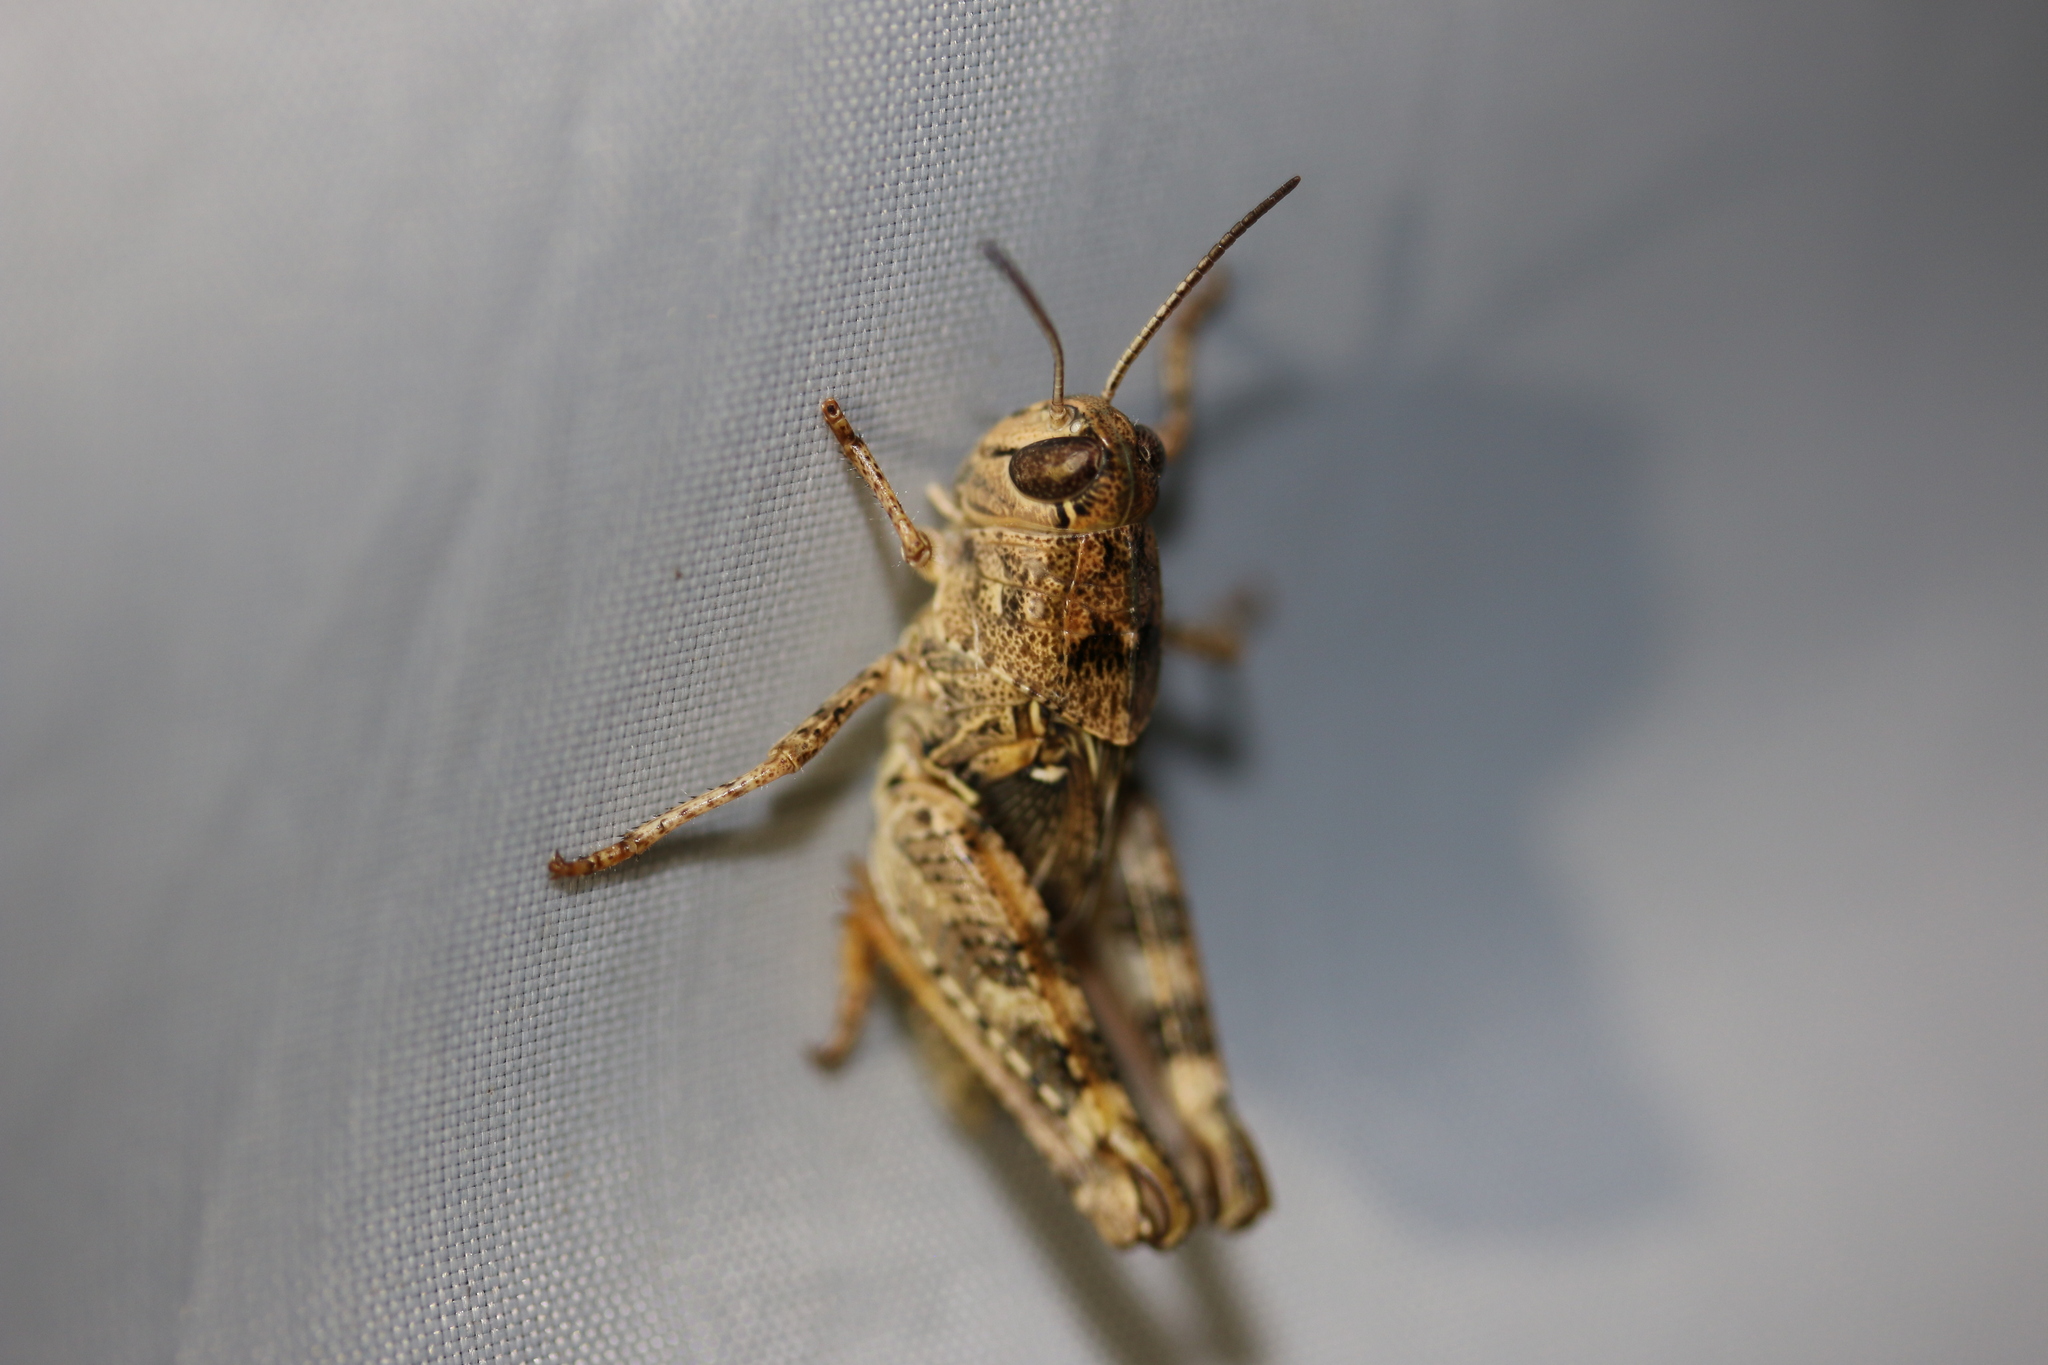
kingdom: Animalia
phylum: Arthropoda
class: Insecta
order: Orthoptera
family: Acrididae
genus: Calliptamus
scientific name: Calliptamus italicus
